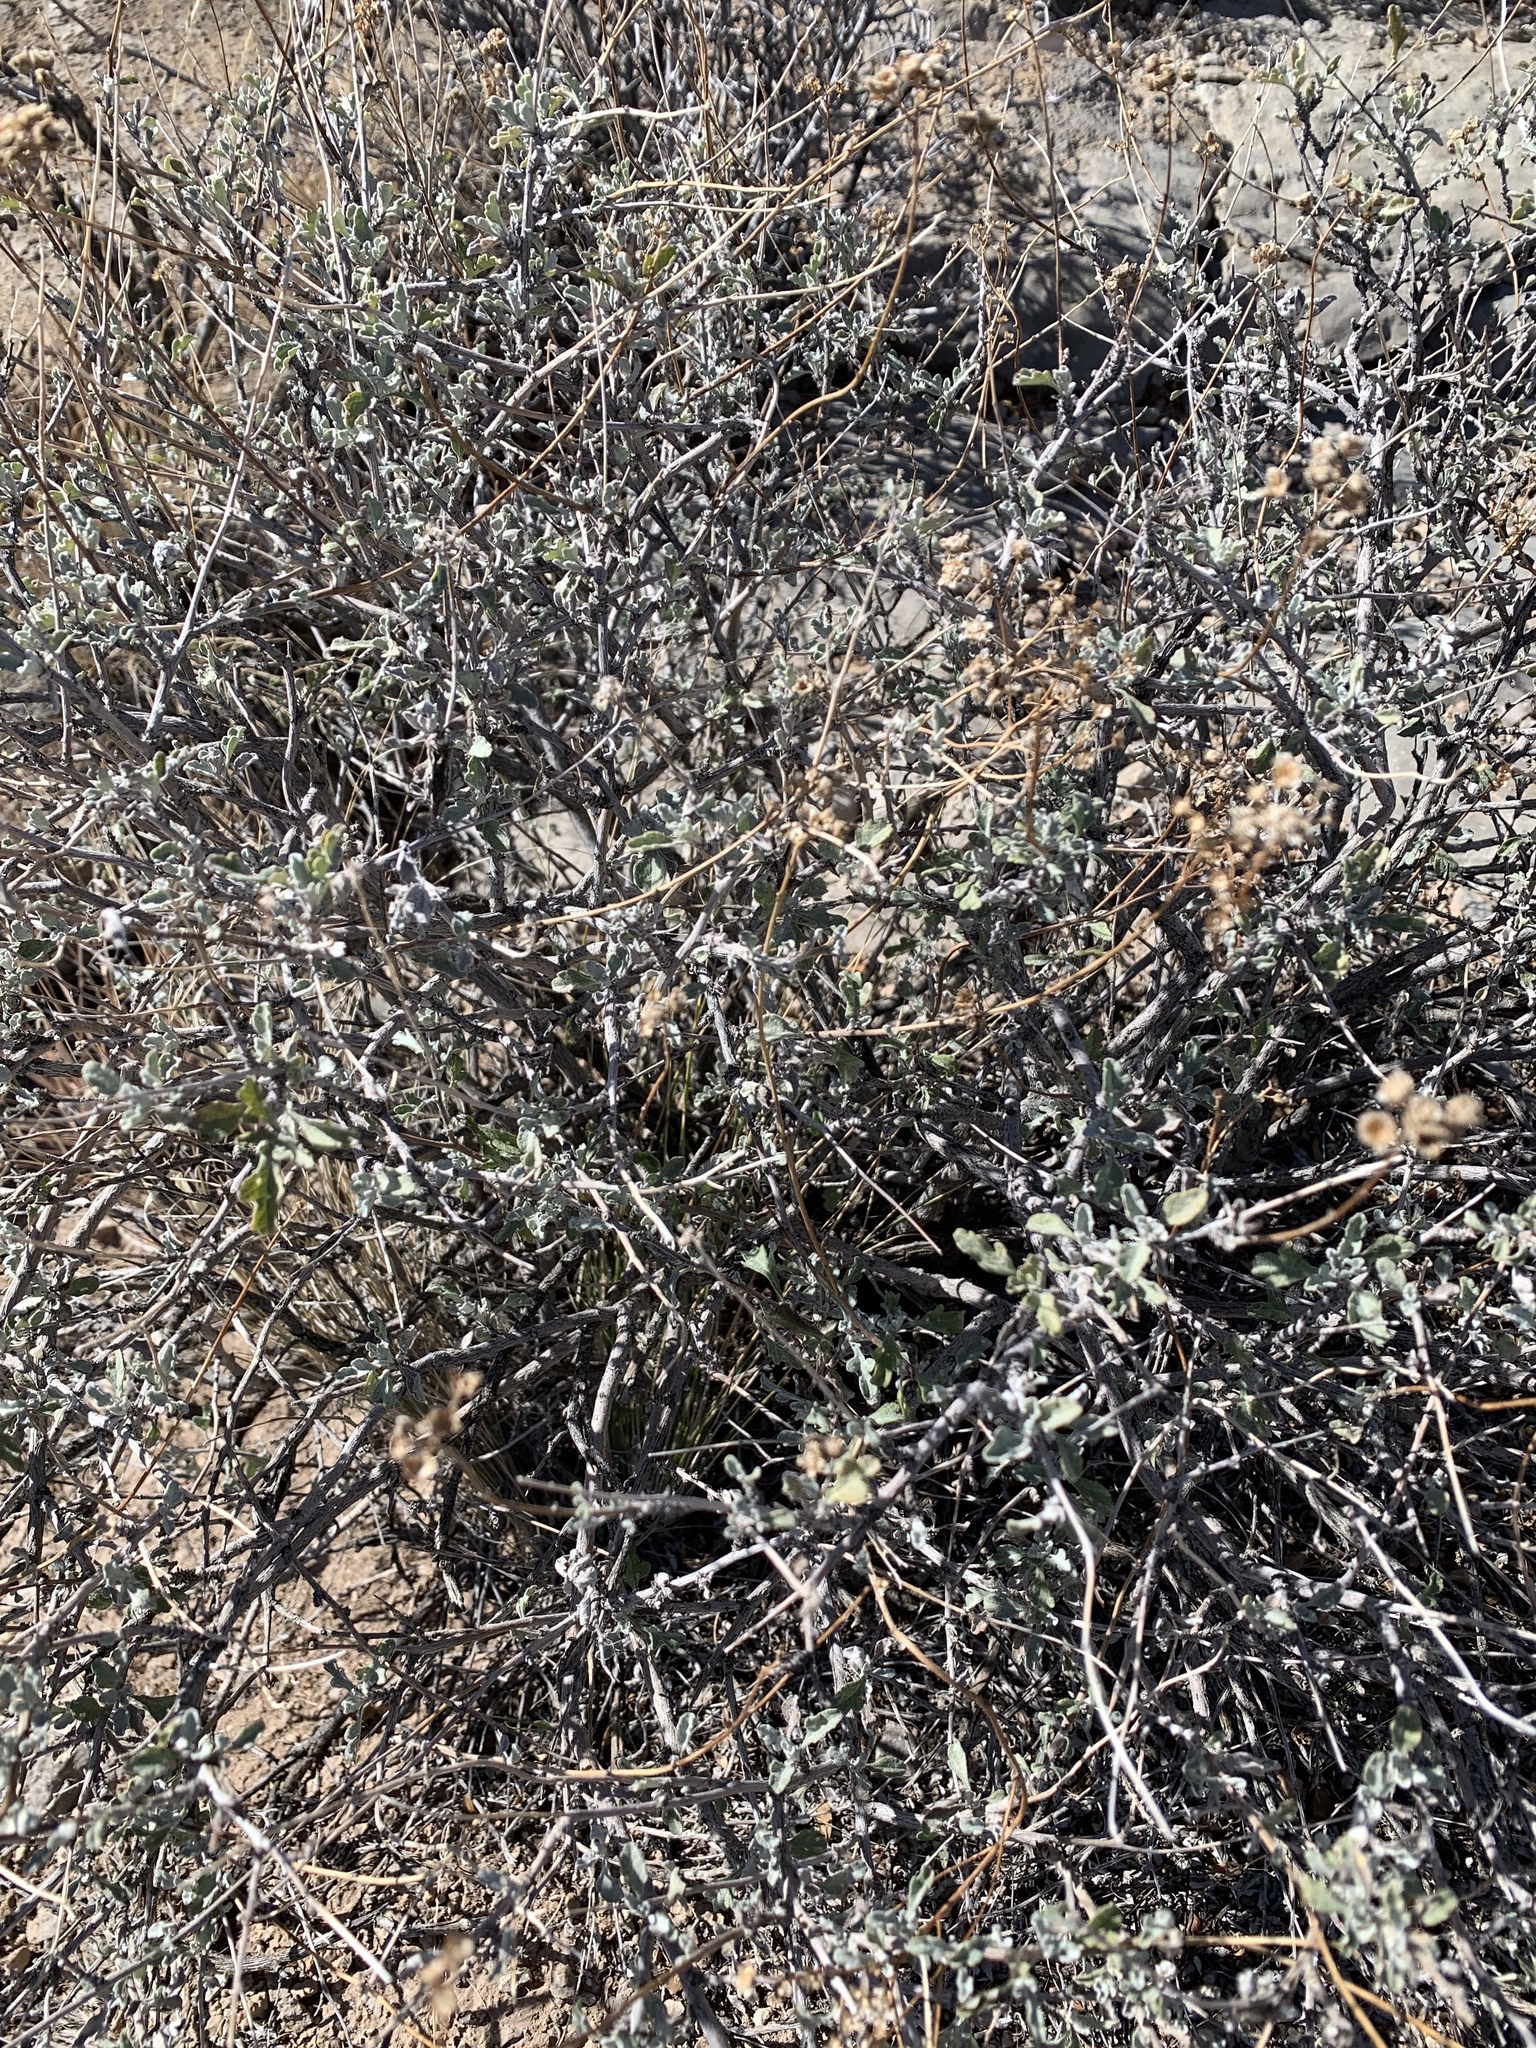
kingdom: Plantae
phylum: Tracheophyta
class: Magnoliopsida
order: Asterales
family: Asteraceae
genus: Parthenium
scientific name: Parthenium incanum
